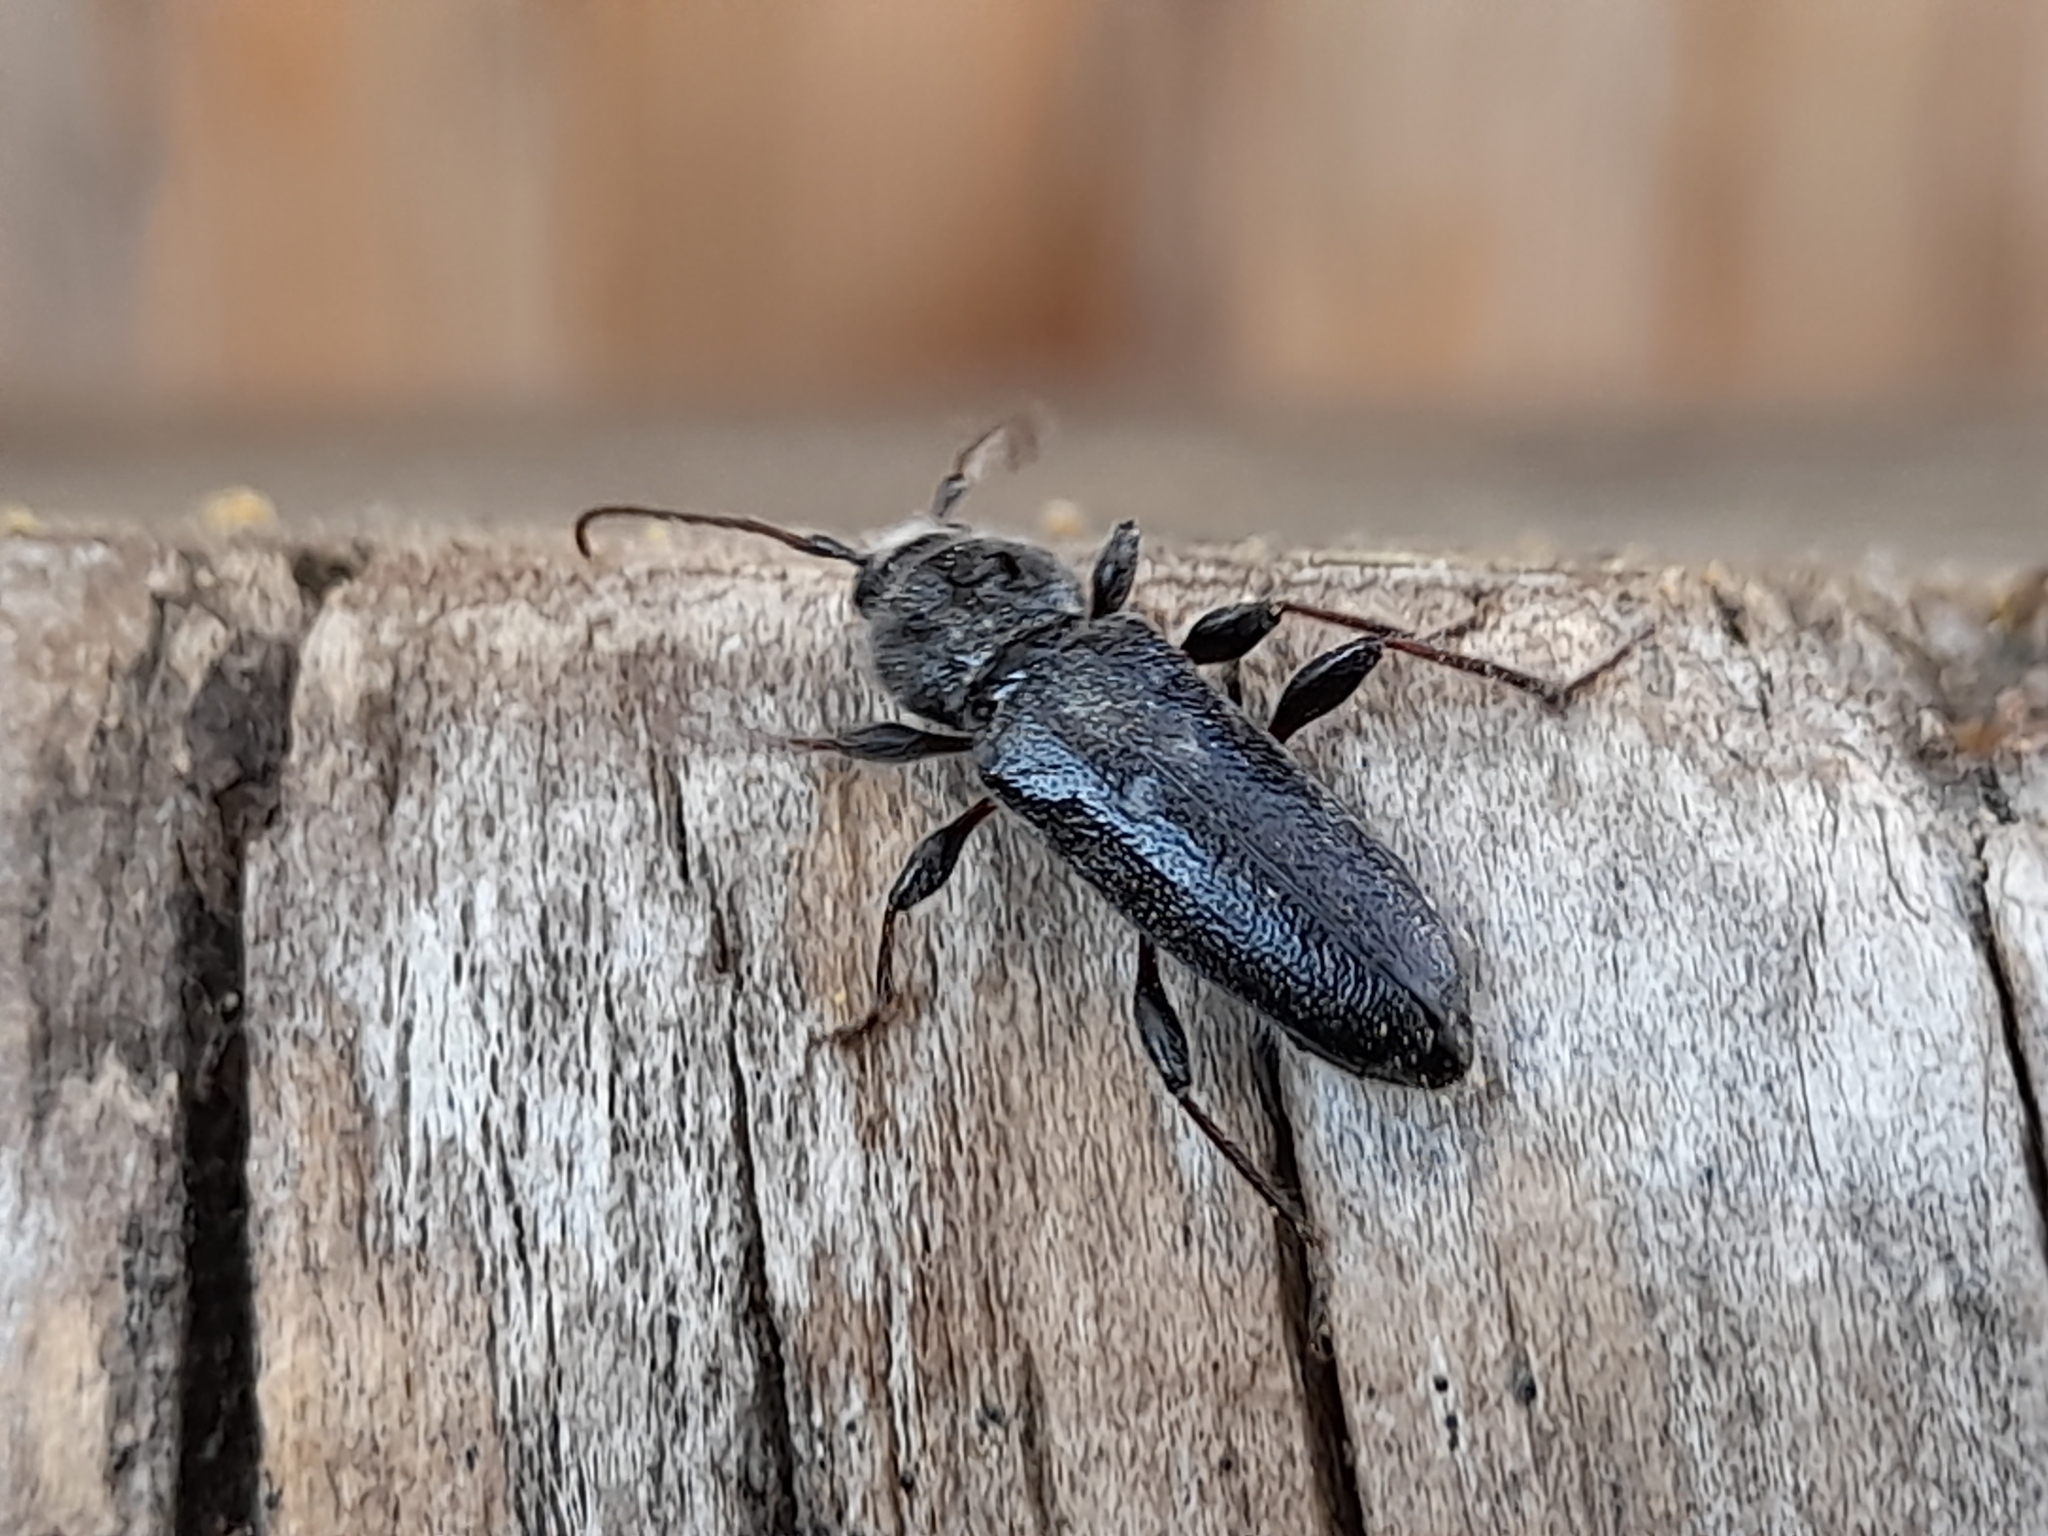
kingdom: Animalia
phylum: Arthropoda
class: Insecta
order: Coleoptera
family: Cerambycidae
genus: Hylotrupes
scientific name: Hylotrupes bajulus
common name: Old house borer
